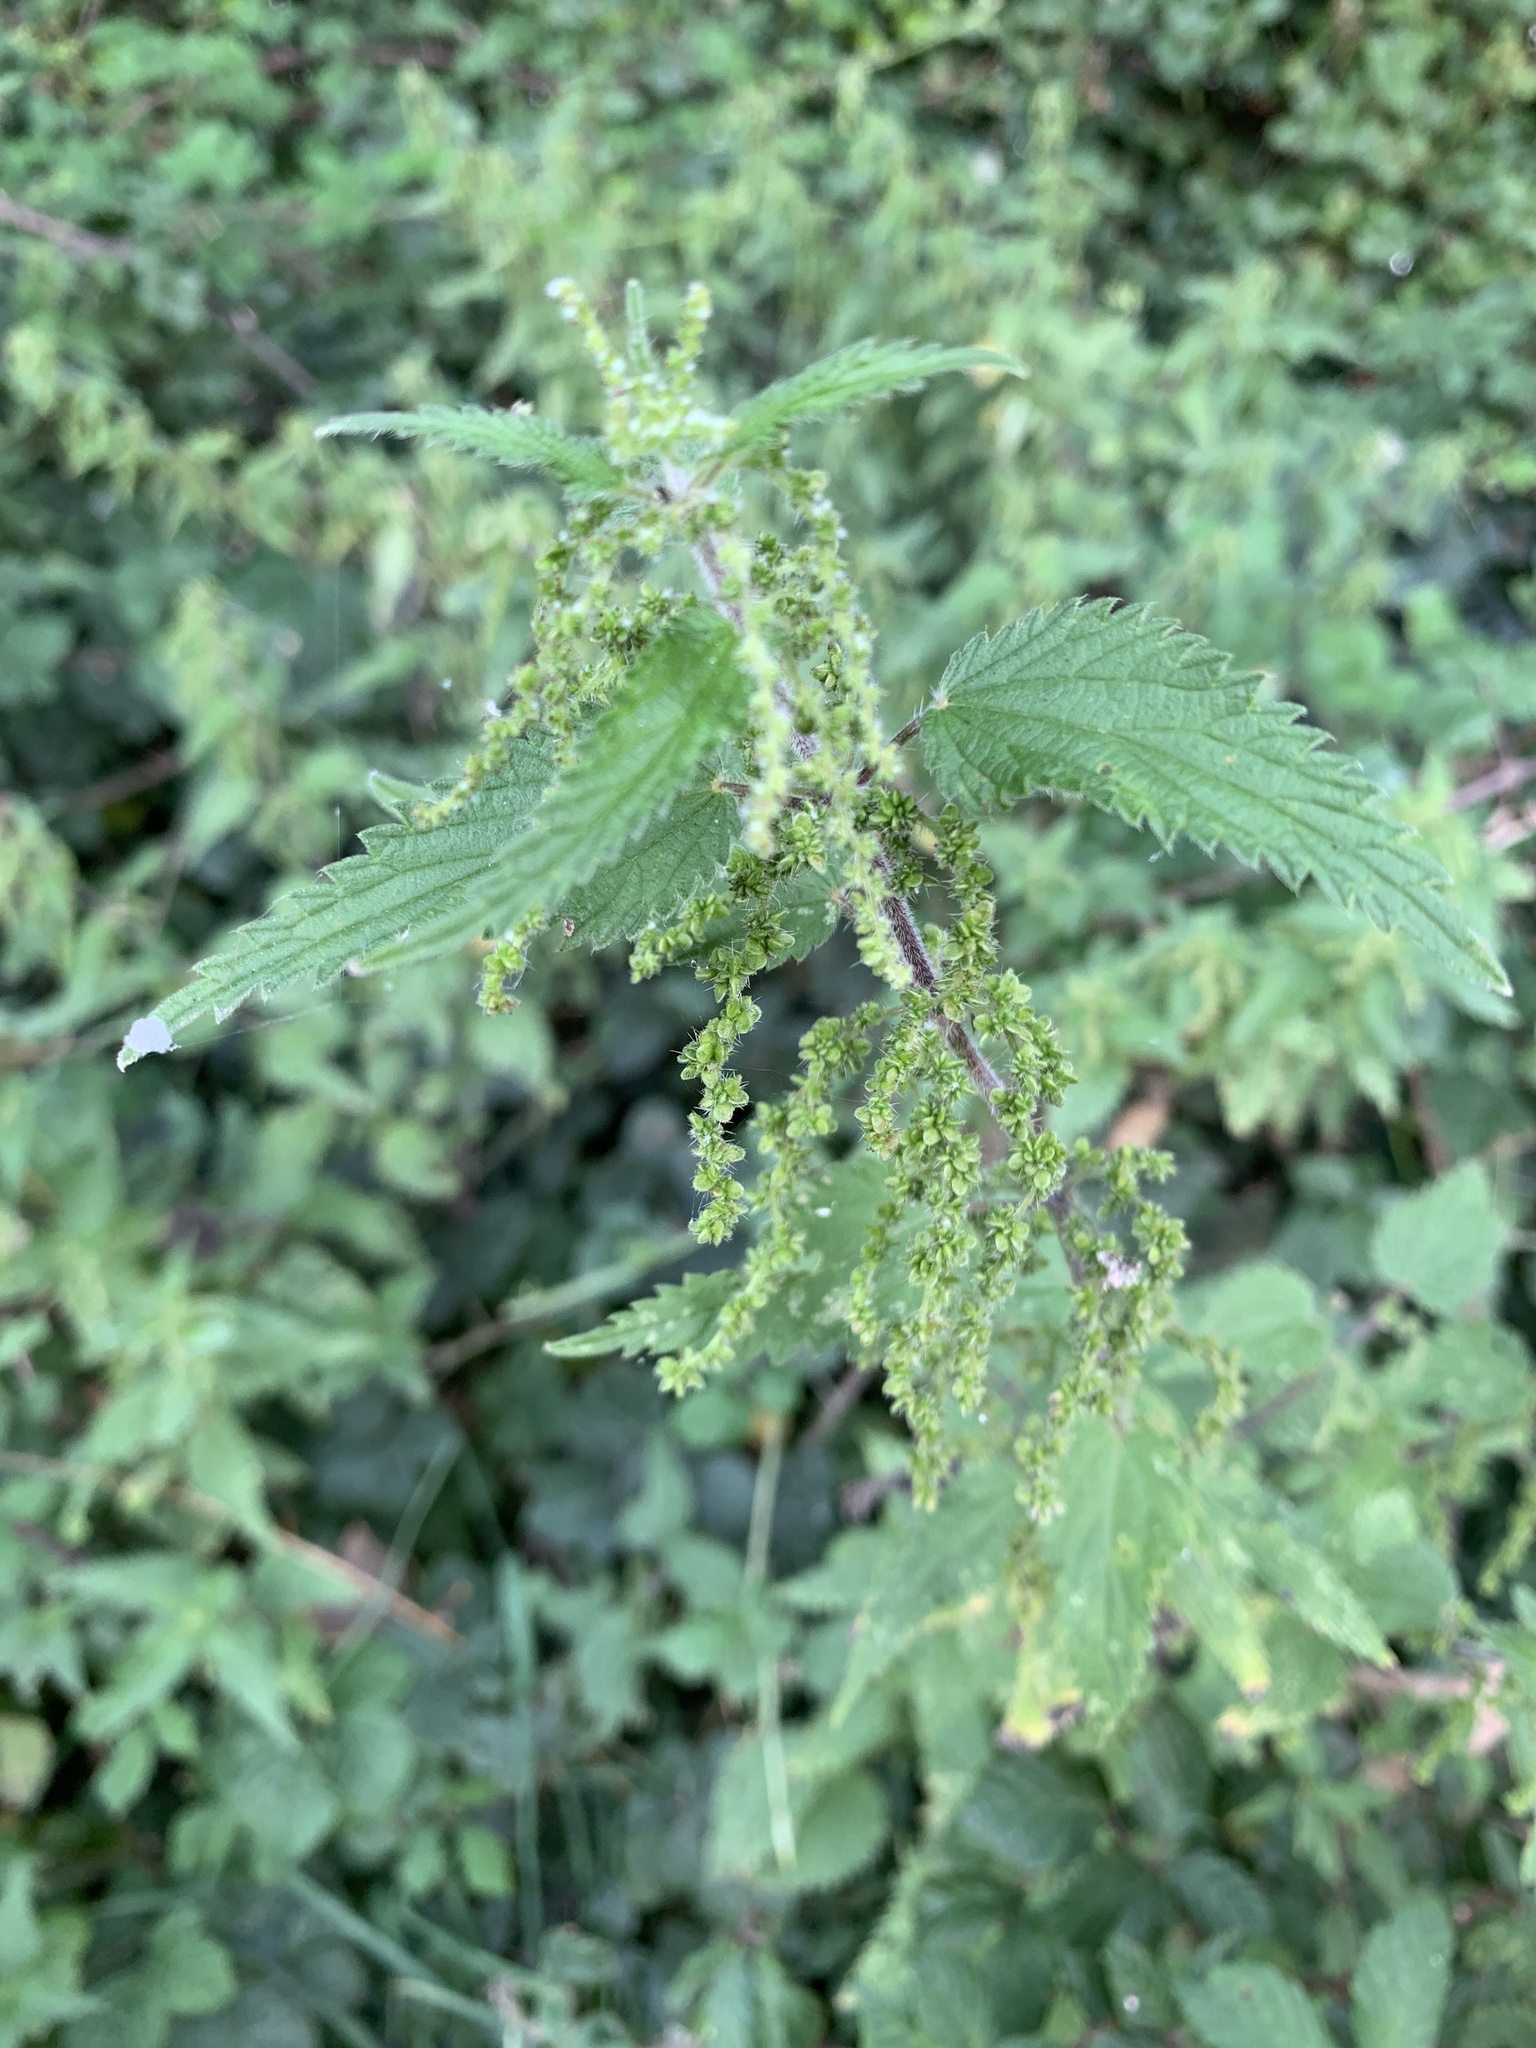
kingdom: Plantae
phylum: Tracheophyta
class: Magnoliopsida
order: Rosales
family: Urticaceae
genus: Urtica
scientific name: Urtica dioica
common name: Common nettle
